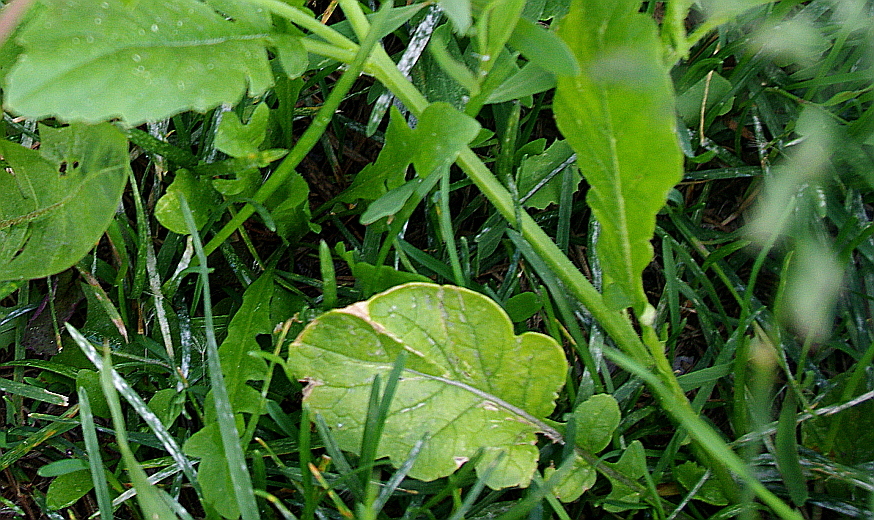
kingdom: Plantae
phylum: Tracheophyta
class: Magnoliopsida
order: Brassicales
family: Brassicaceae
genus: Raphanus
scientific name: Raphanus raphanistrum
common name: Wild radish
